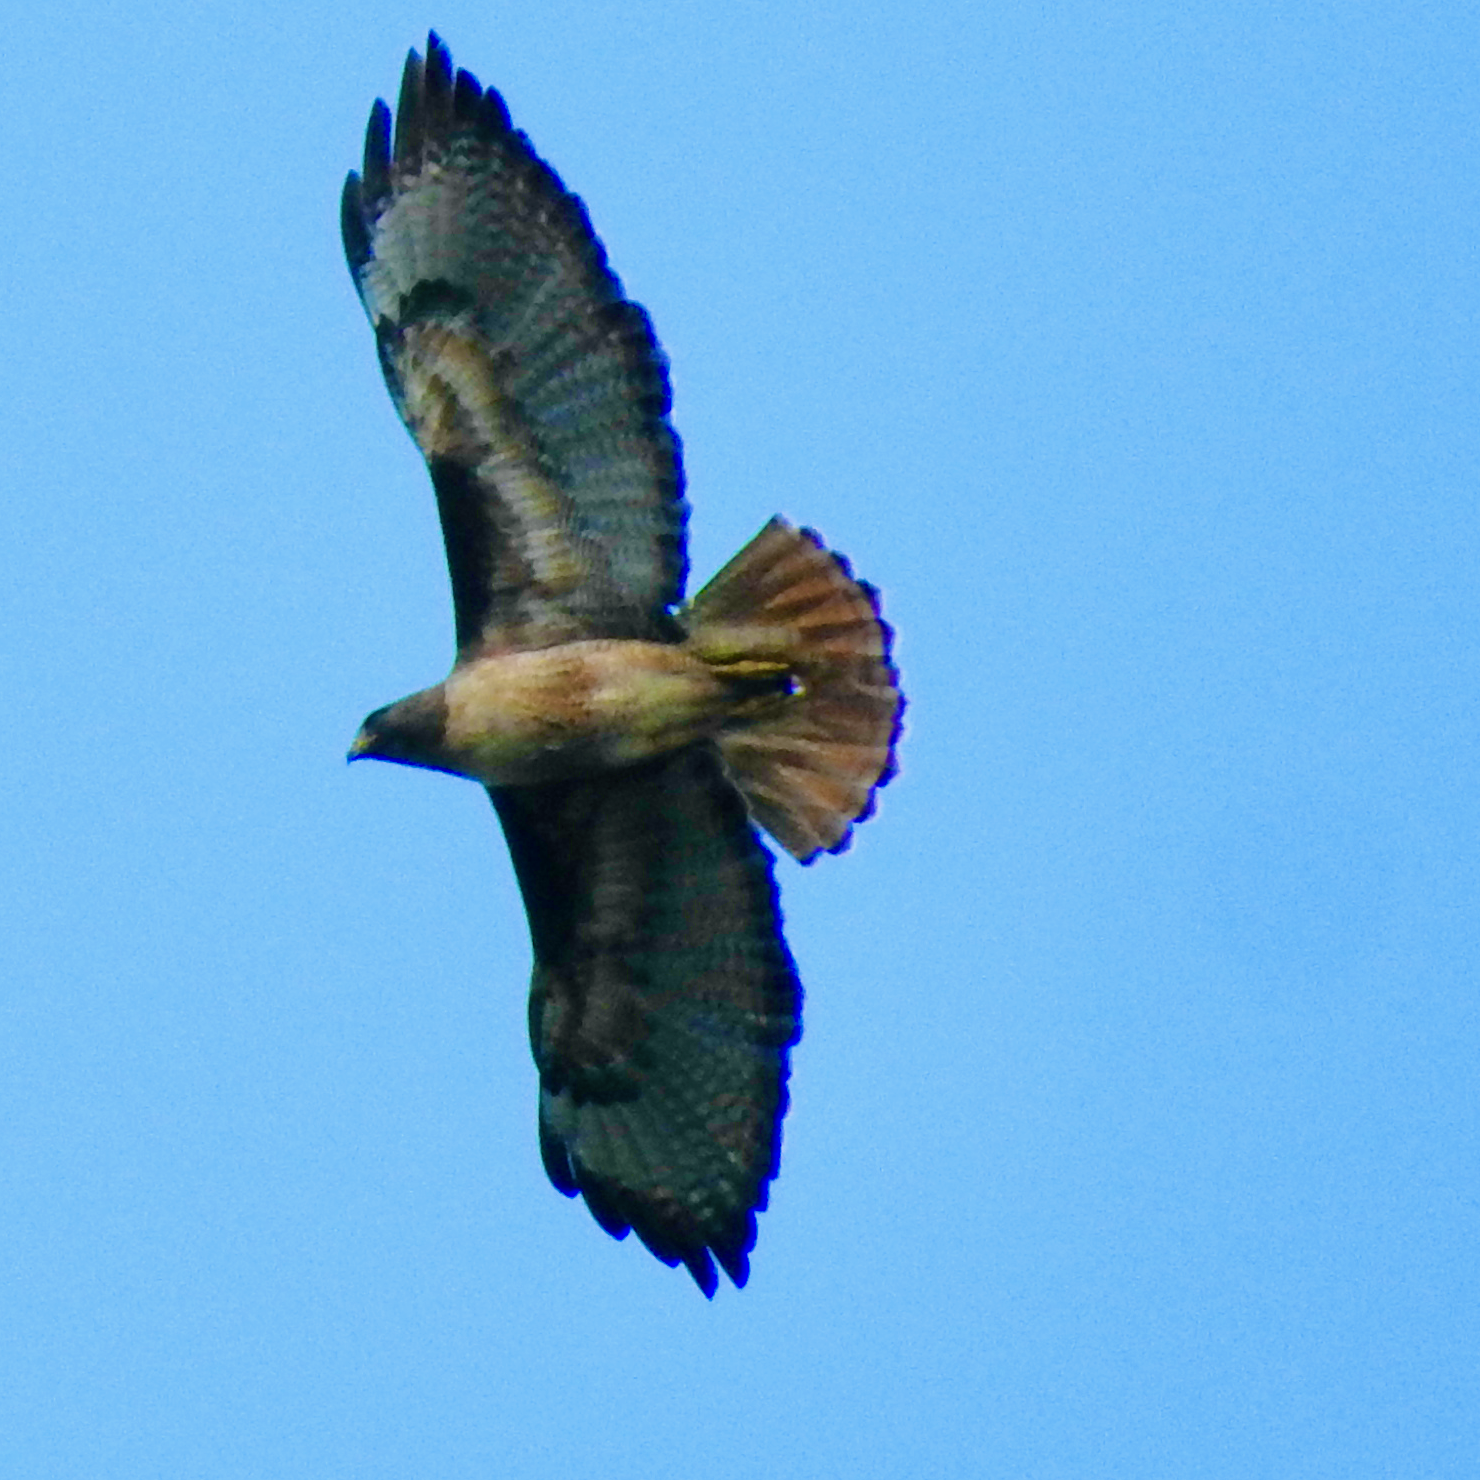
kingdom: Animalia
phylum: Chordata
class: Aves
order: Accipitriformes
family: Accipitridae
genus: Buteo
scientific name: Buteo jamaicensis
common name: Red-tailed hawk
